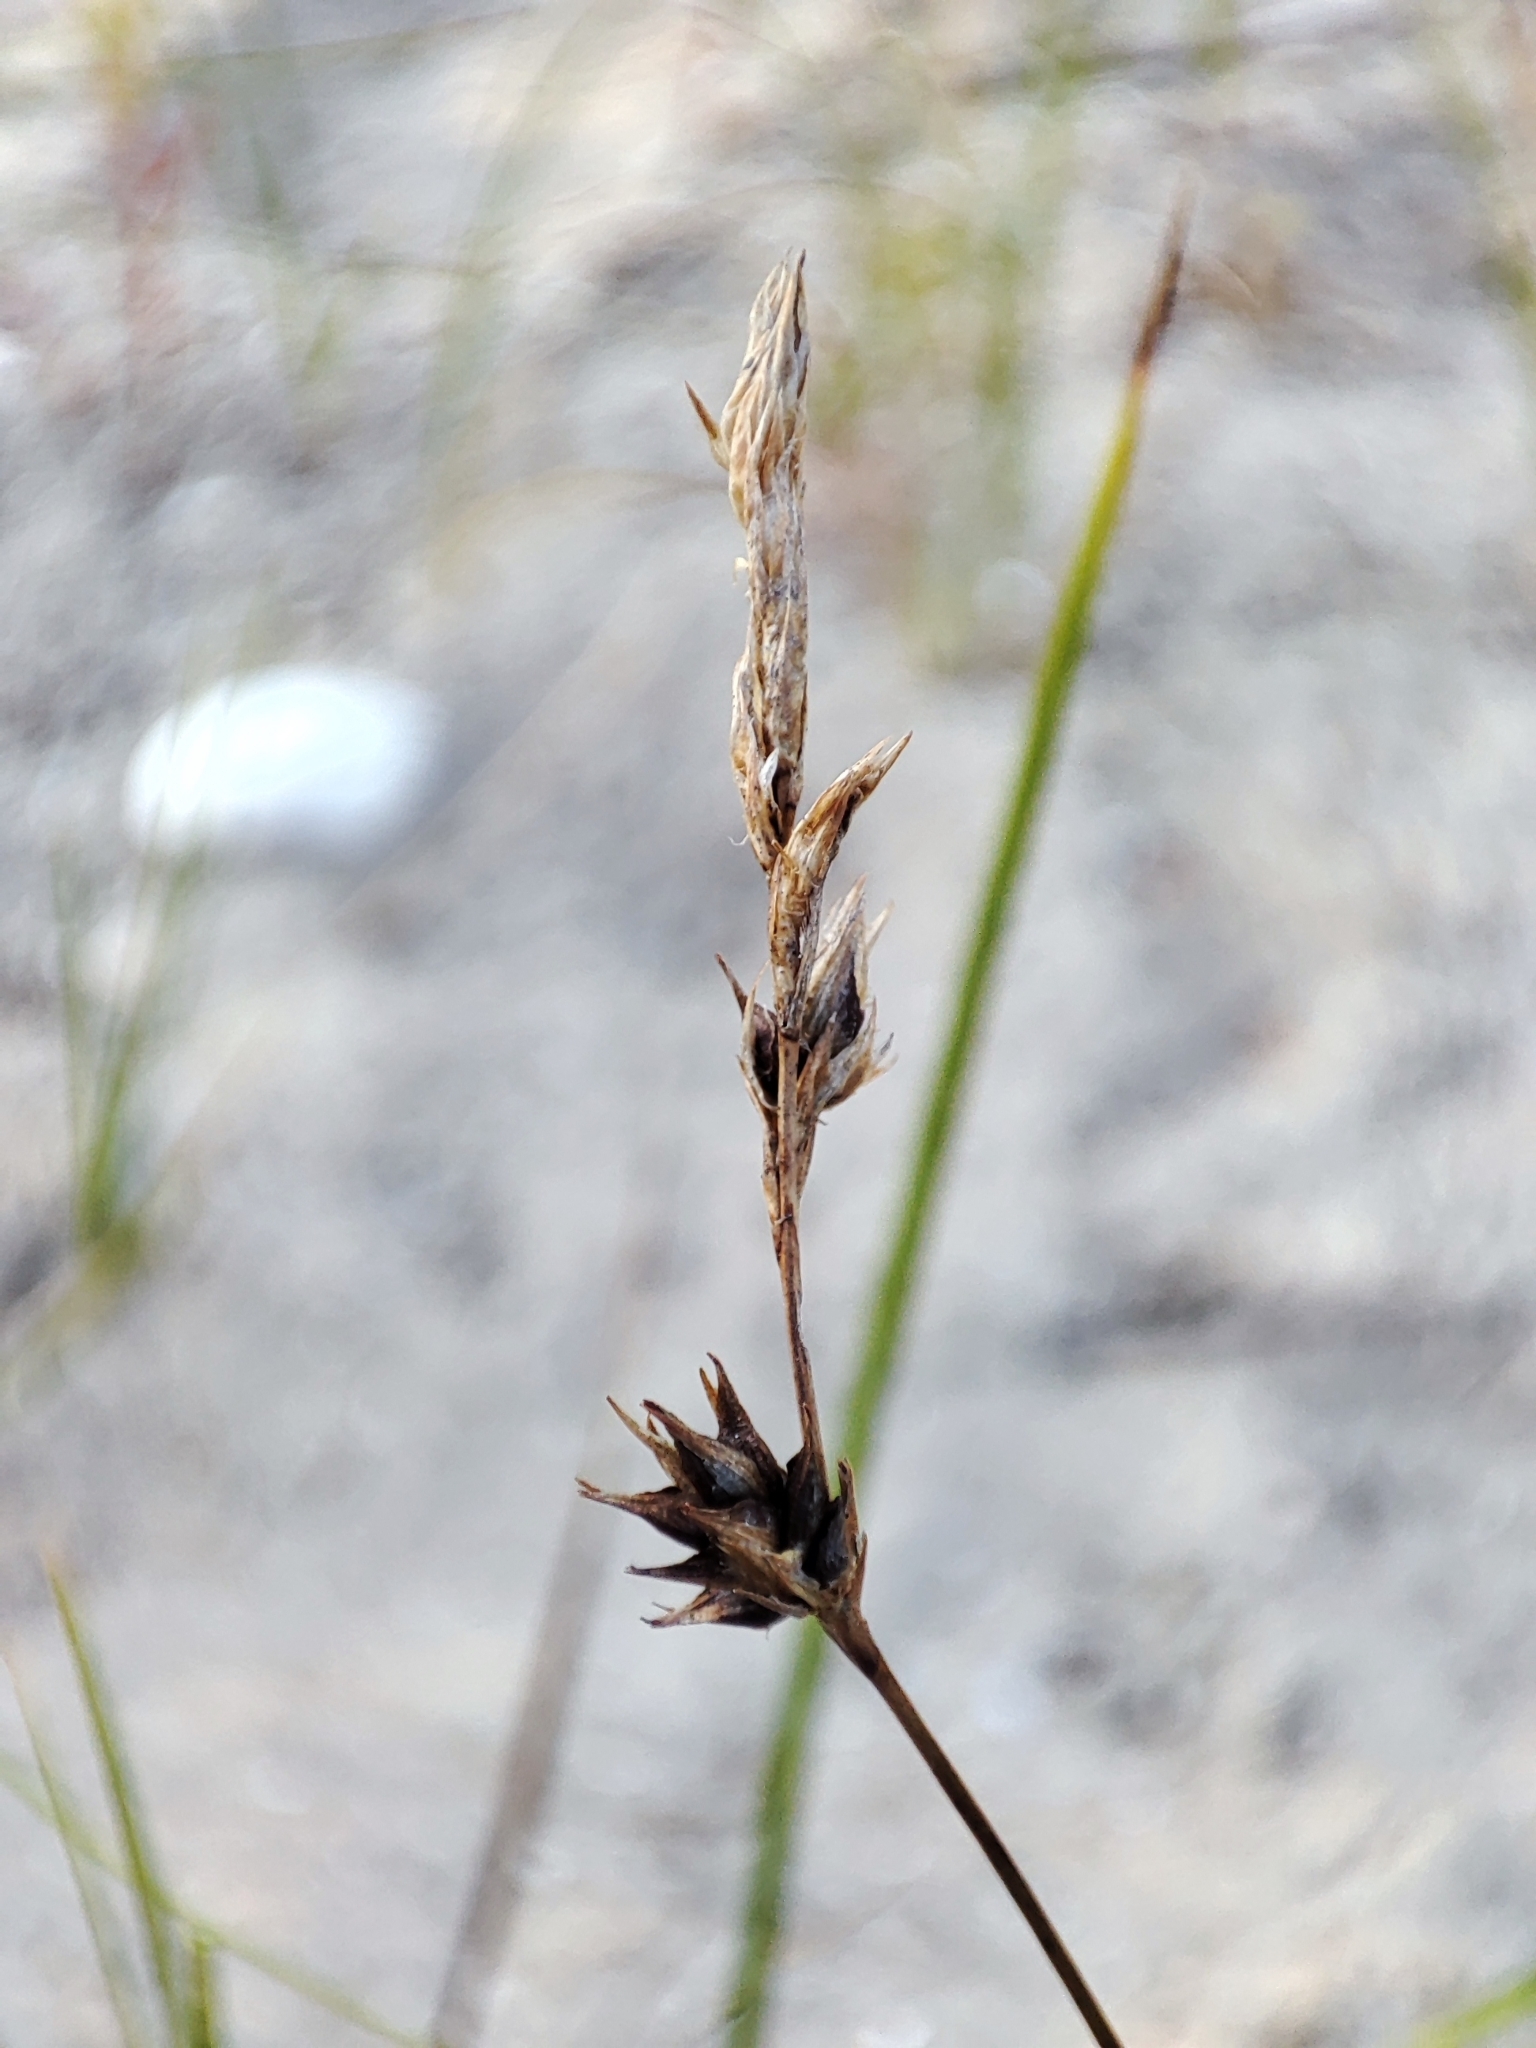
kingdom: Plantae
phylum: Tracheophyta
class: Liliopsida
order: Poales
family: Cyperaceae
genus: Carex
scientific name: Carex colchica
